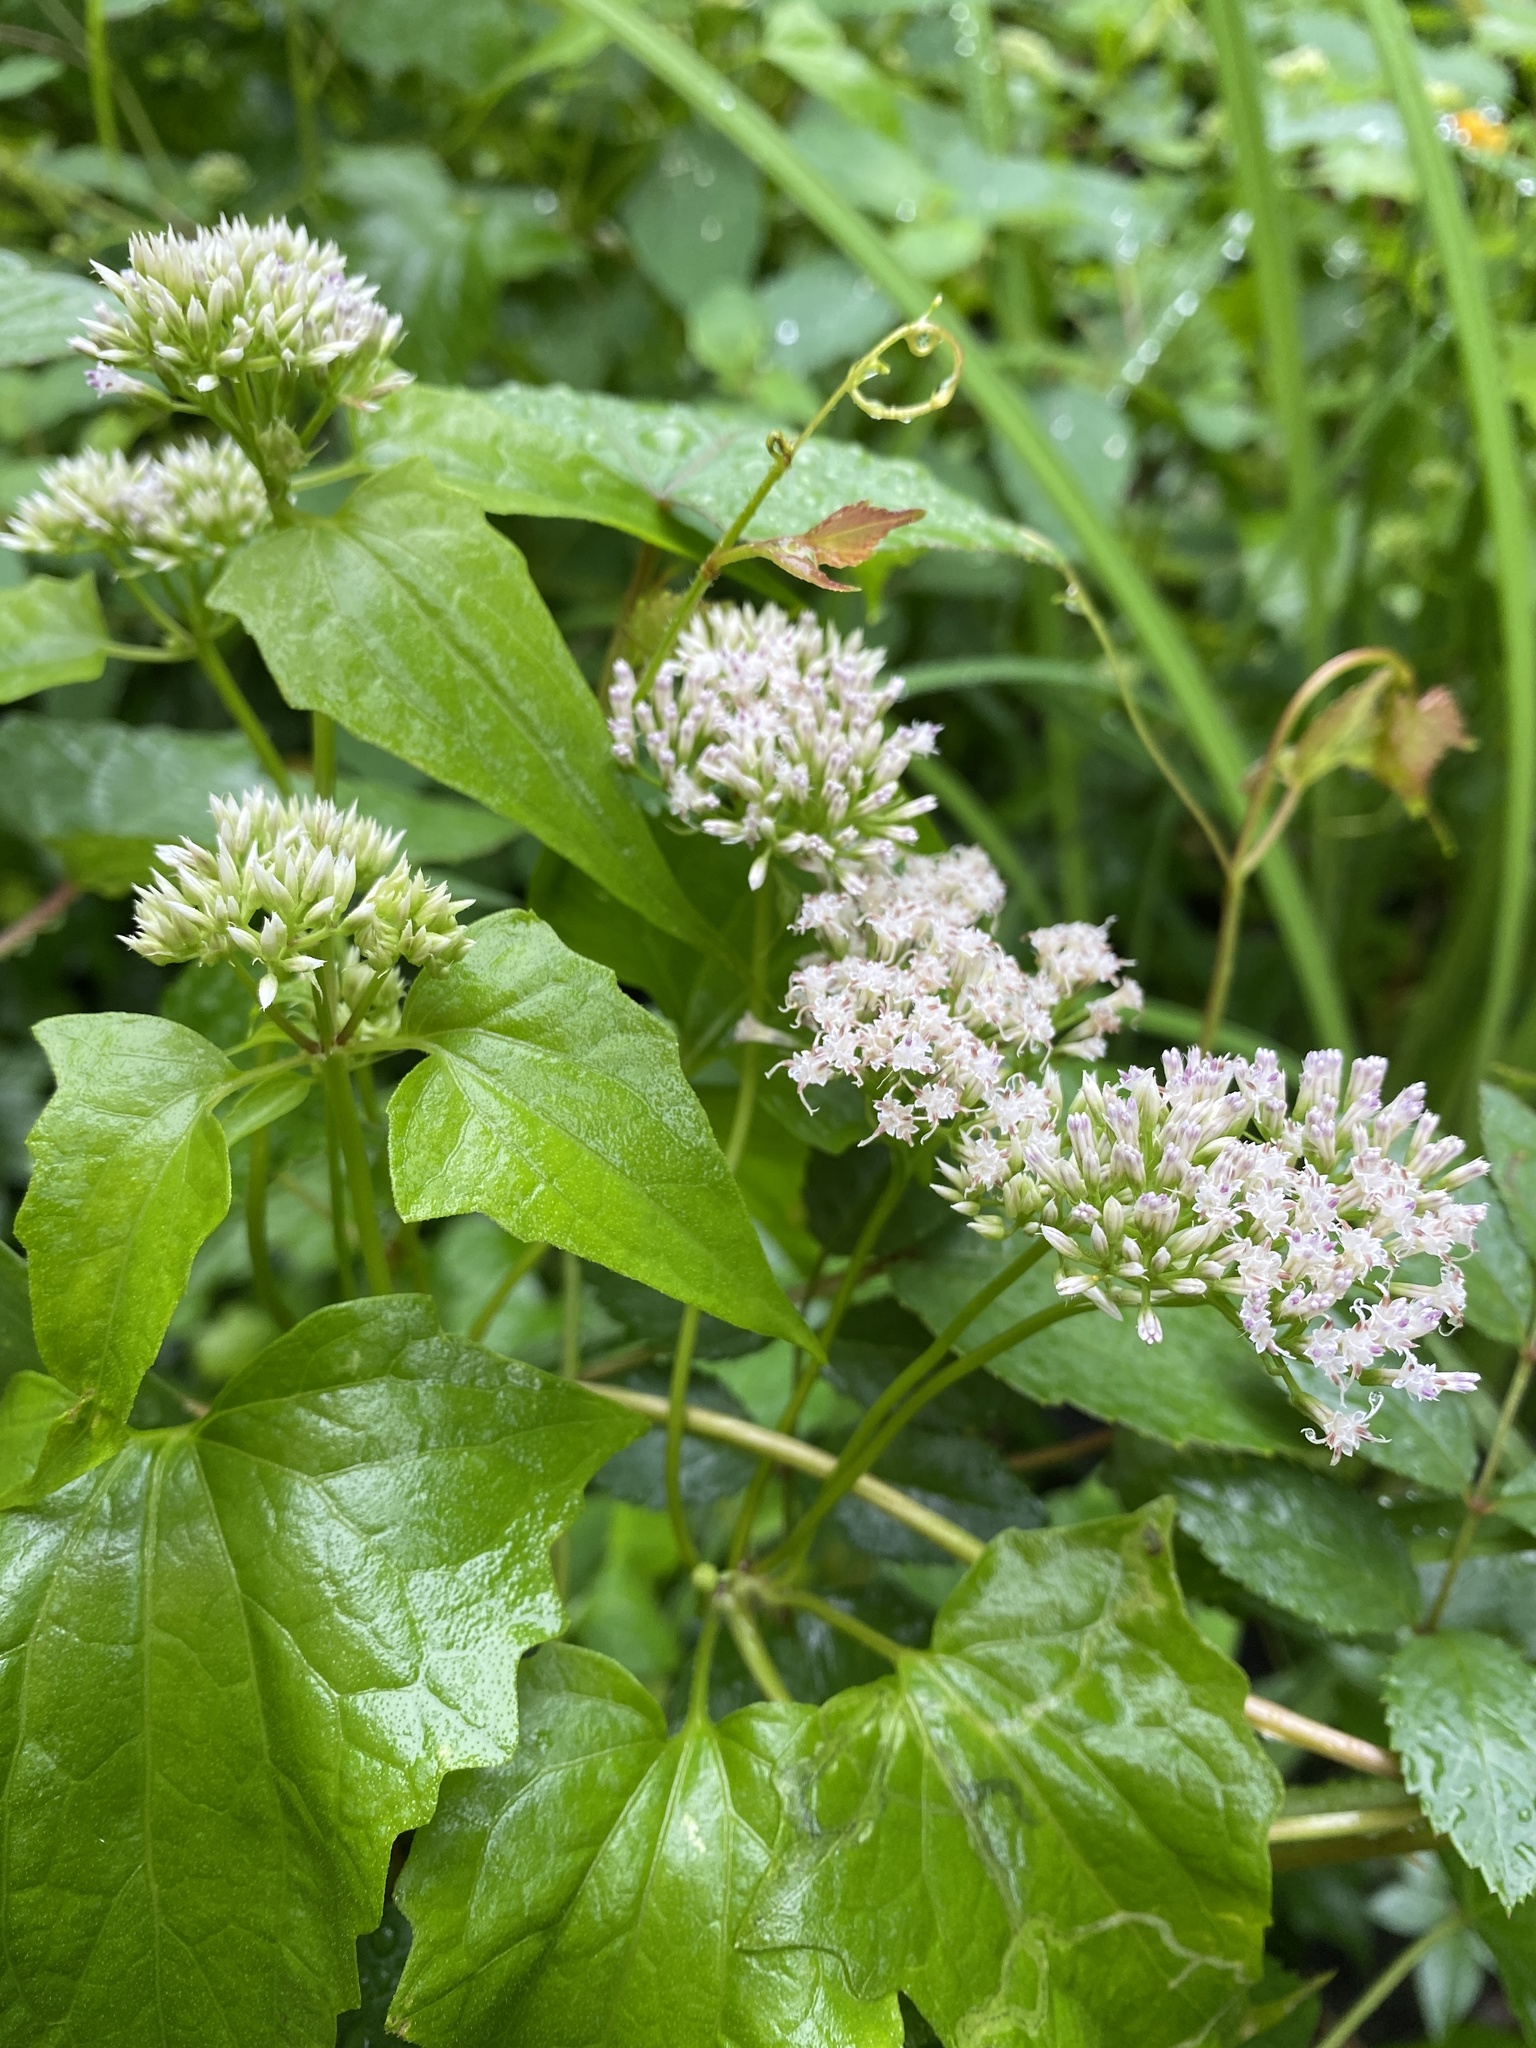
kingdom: Plantae
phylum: Tracheophyta
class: Magnoliopsida
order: Asterales
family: Asteraceae
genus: Mikania
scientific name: Mikania scandens
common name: Climbing hempvine
